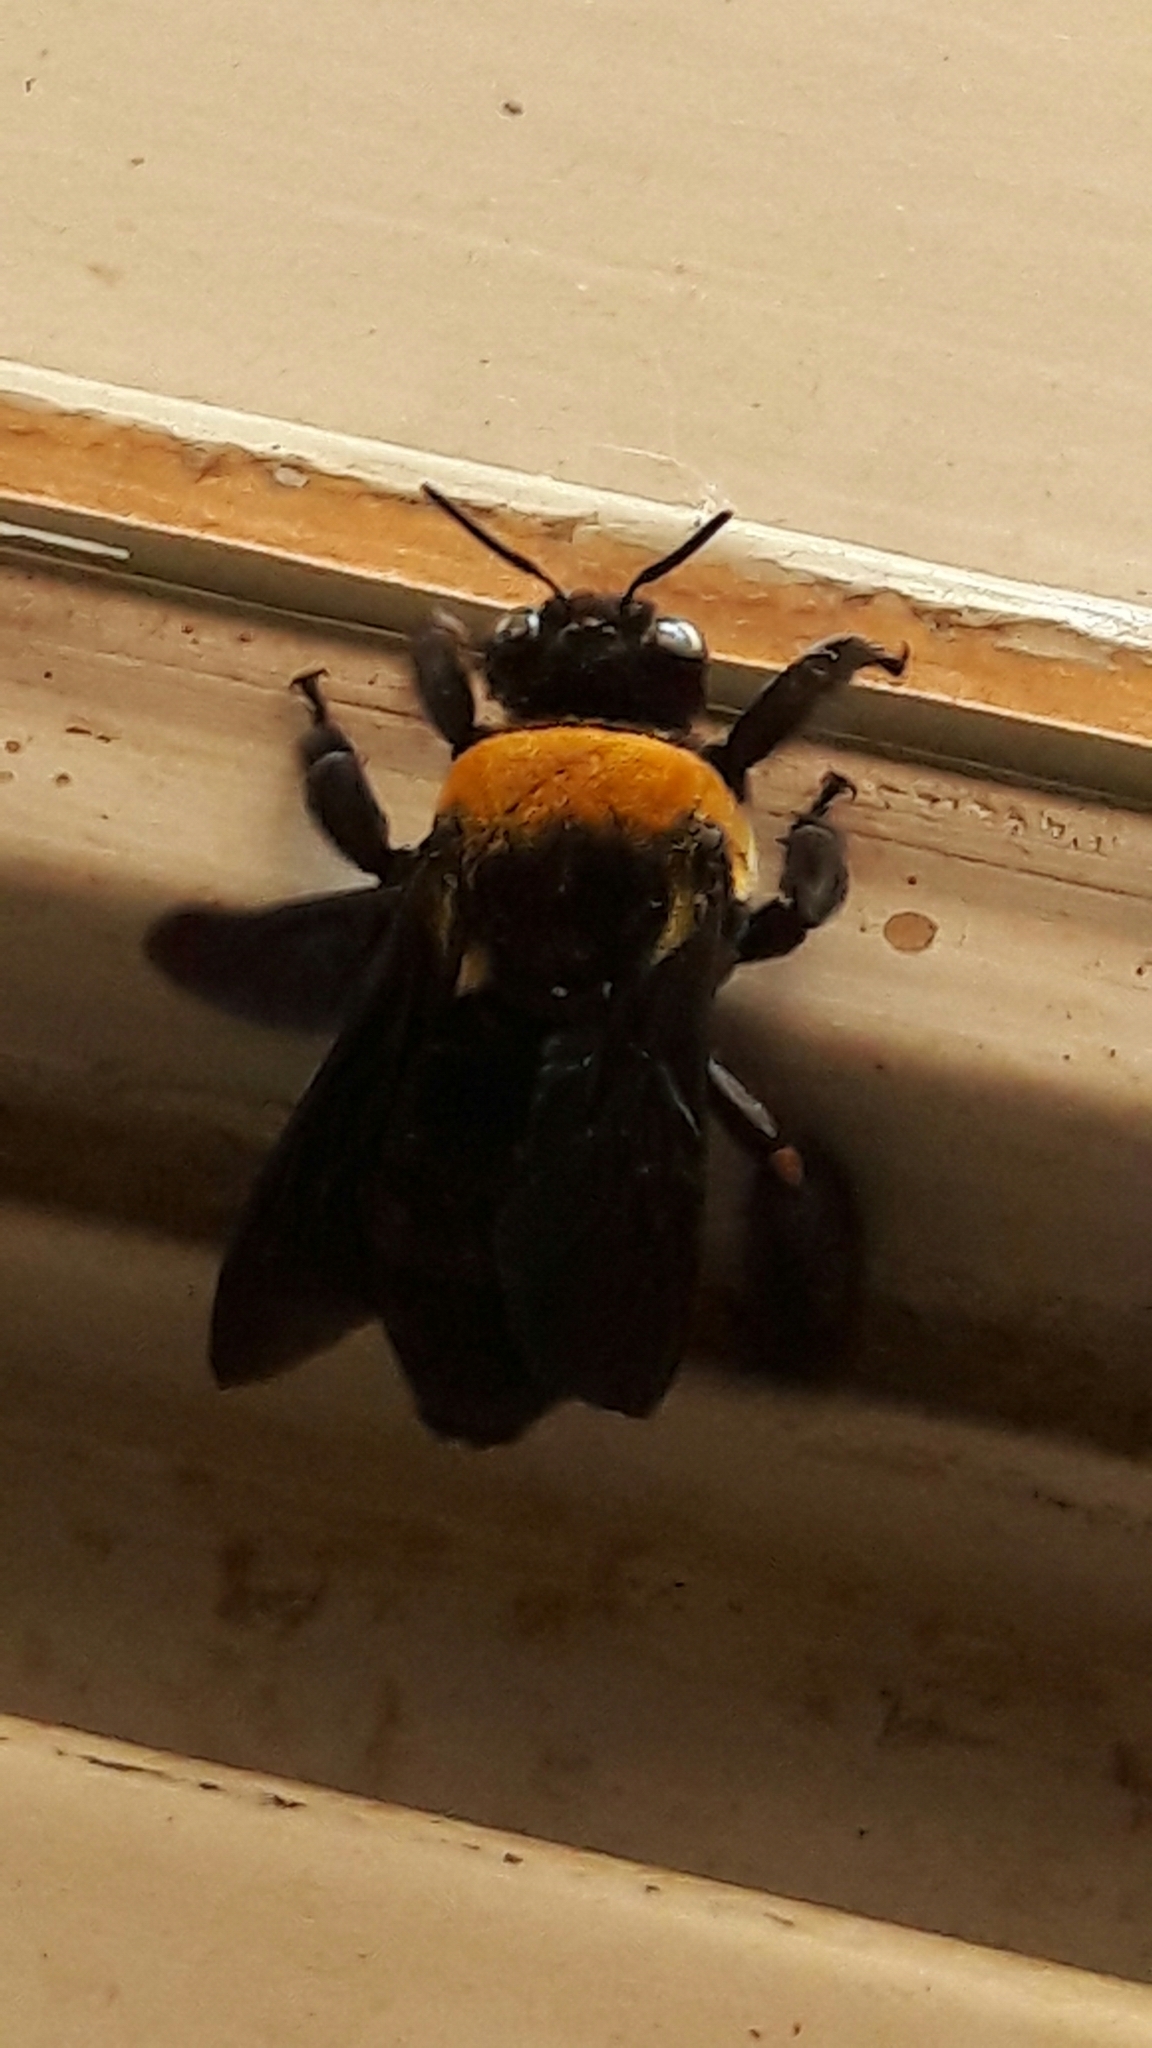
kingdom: Animalia
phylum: Arthropoda
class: Insecta
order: Hymenoptera
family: Apidae
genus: Centris
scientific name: Centris scopipes
